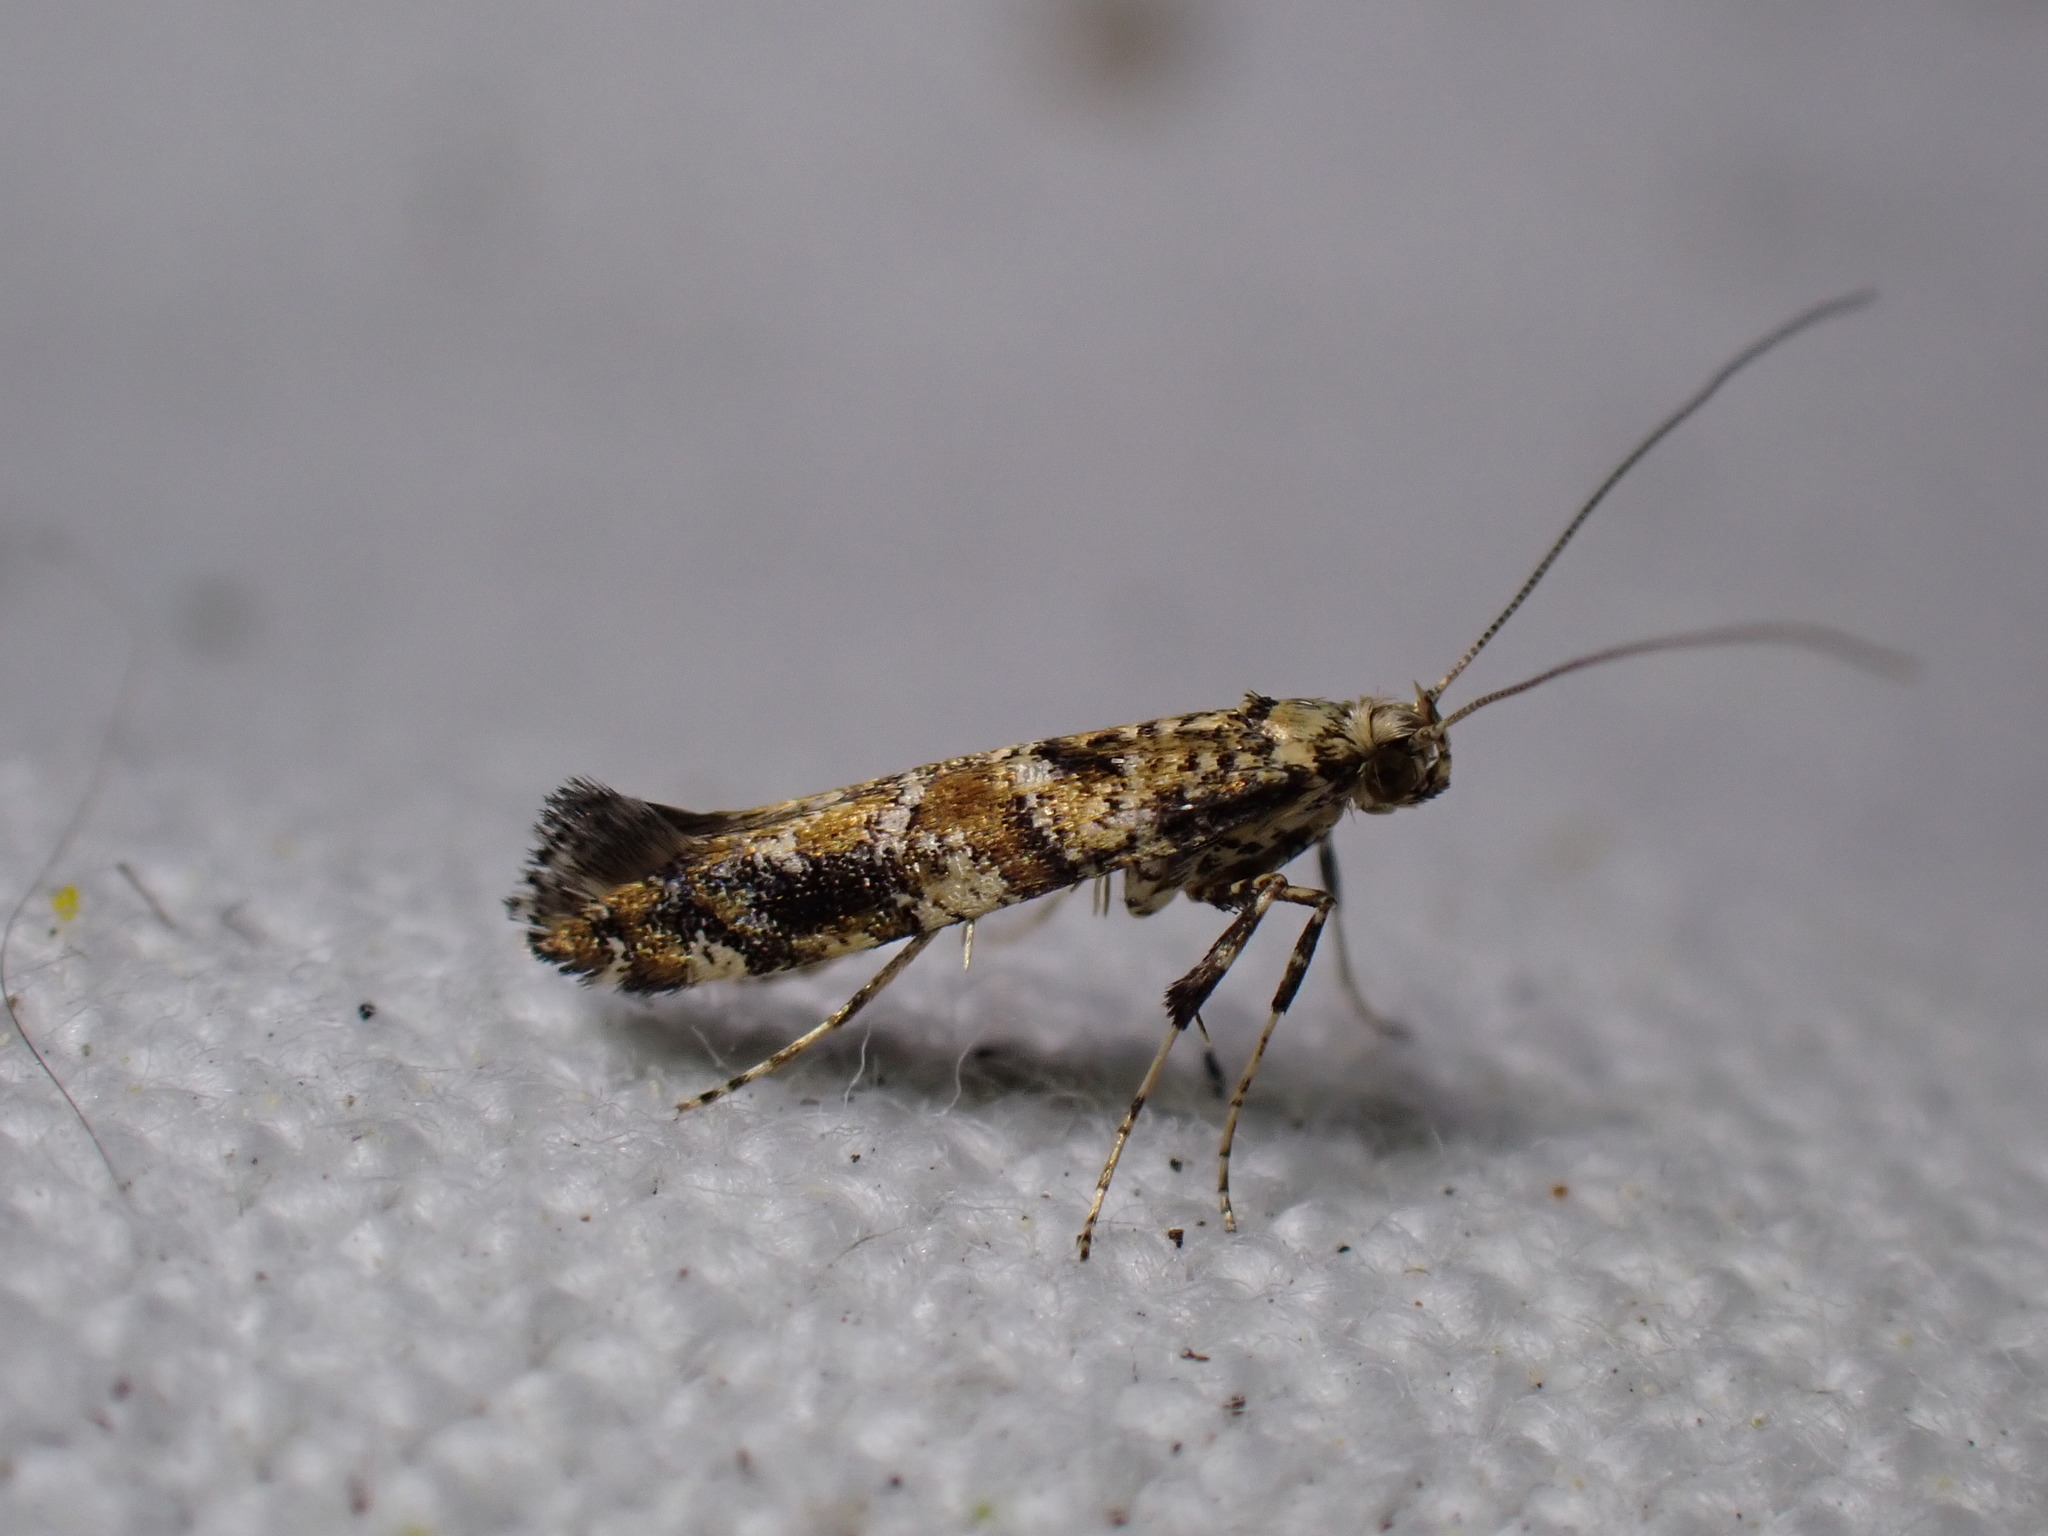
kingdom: Animalia
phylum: Arthropoda
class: Insecta
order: Lepidoptera
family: Gracillariidae
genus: Gracillaria
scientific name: Gracillaria syringella
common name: Common slender
